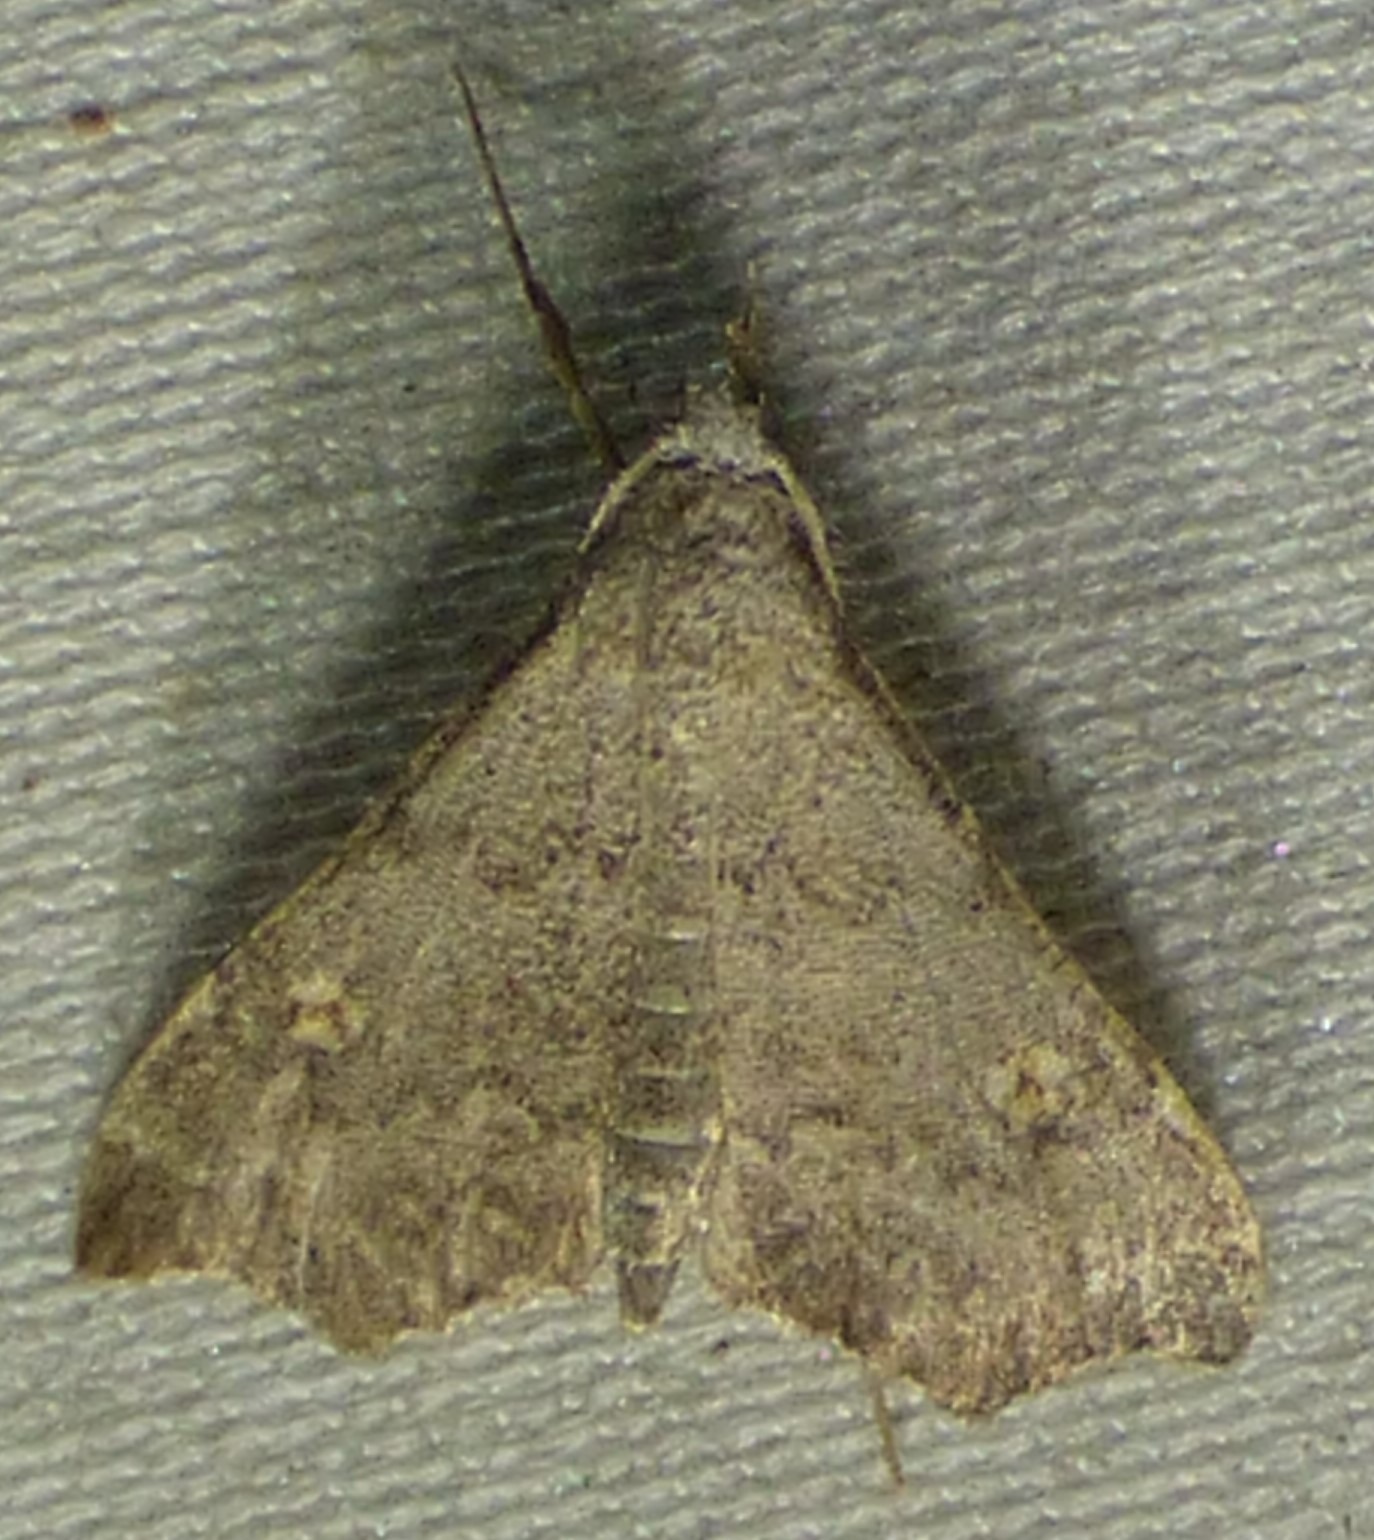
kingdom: Animalia
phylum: Arthropoda
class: Insecta
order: Lepidoptera
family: Erebidae
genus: Redectis
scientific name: Redectis pygmaea
